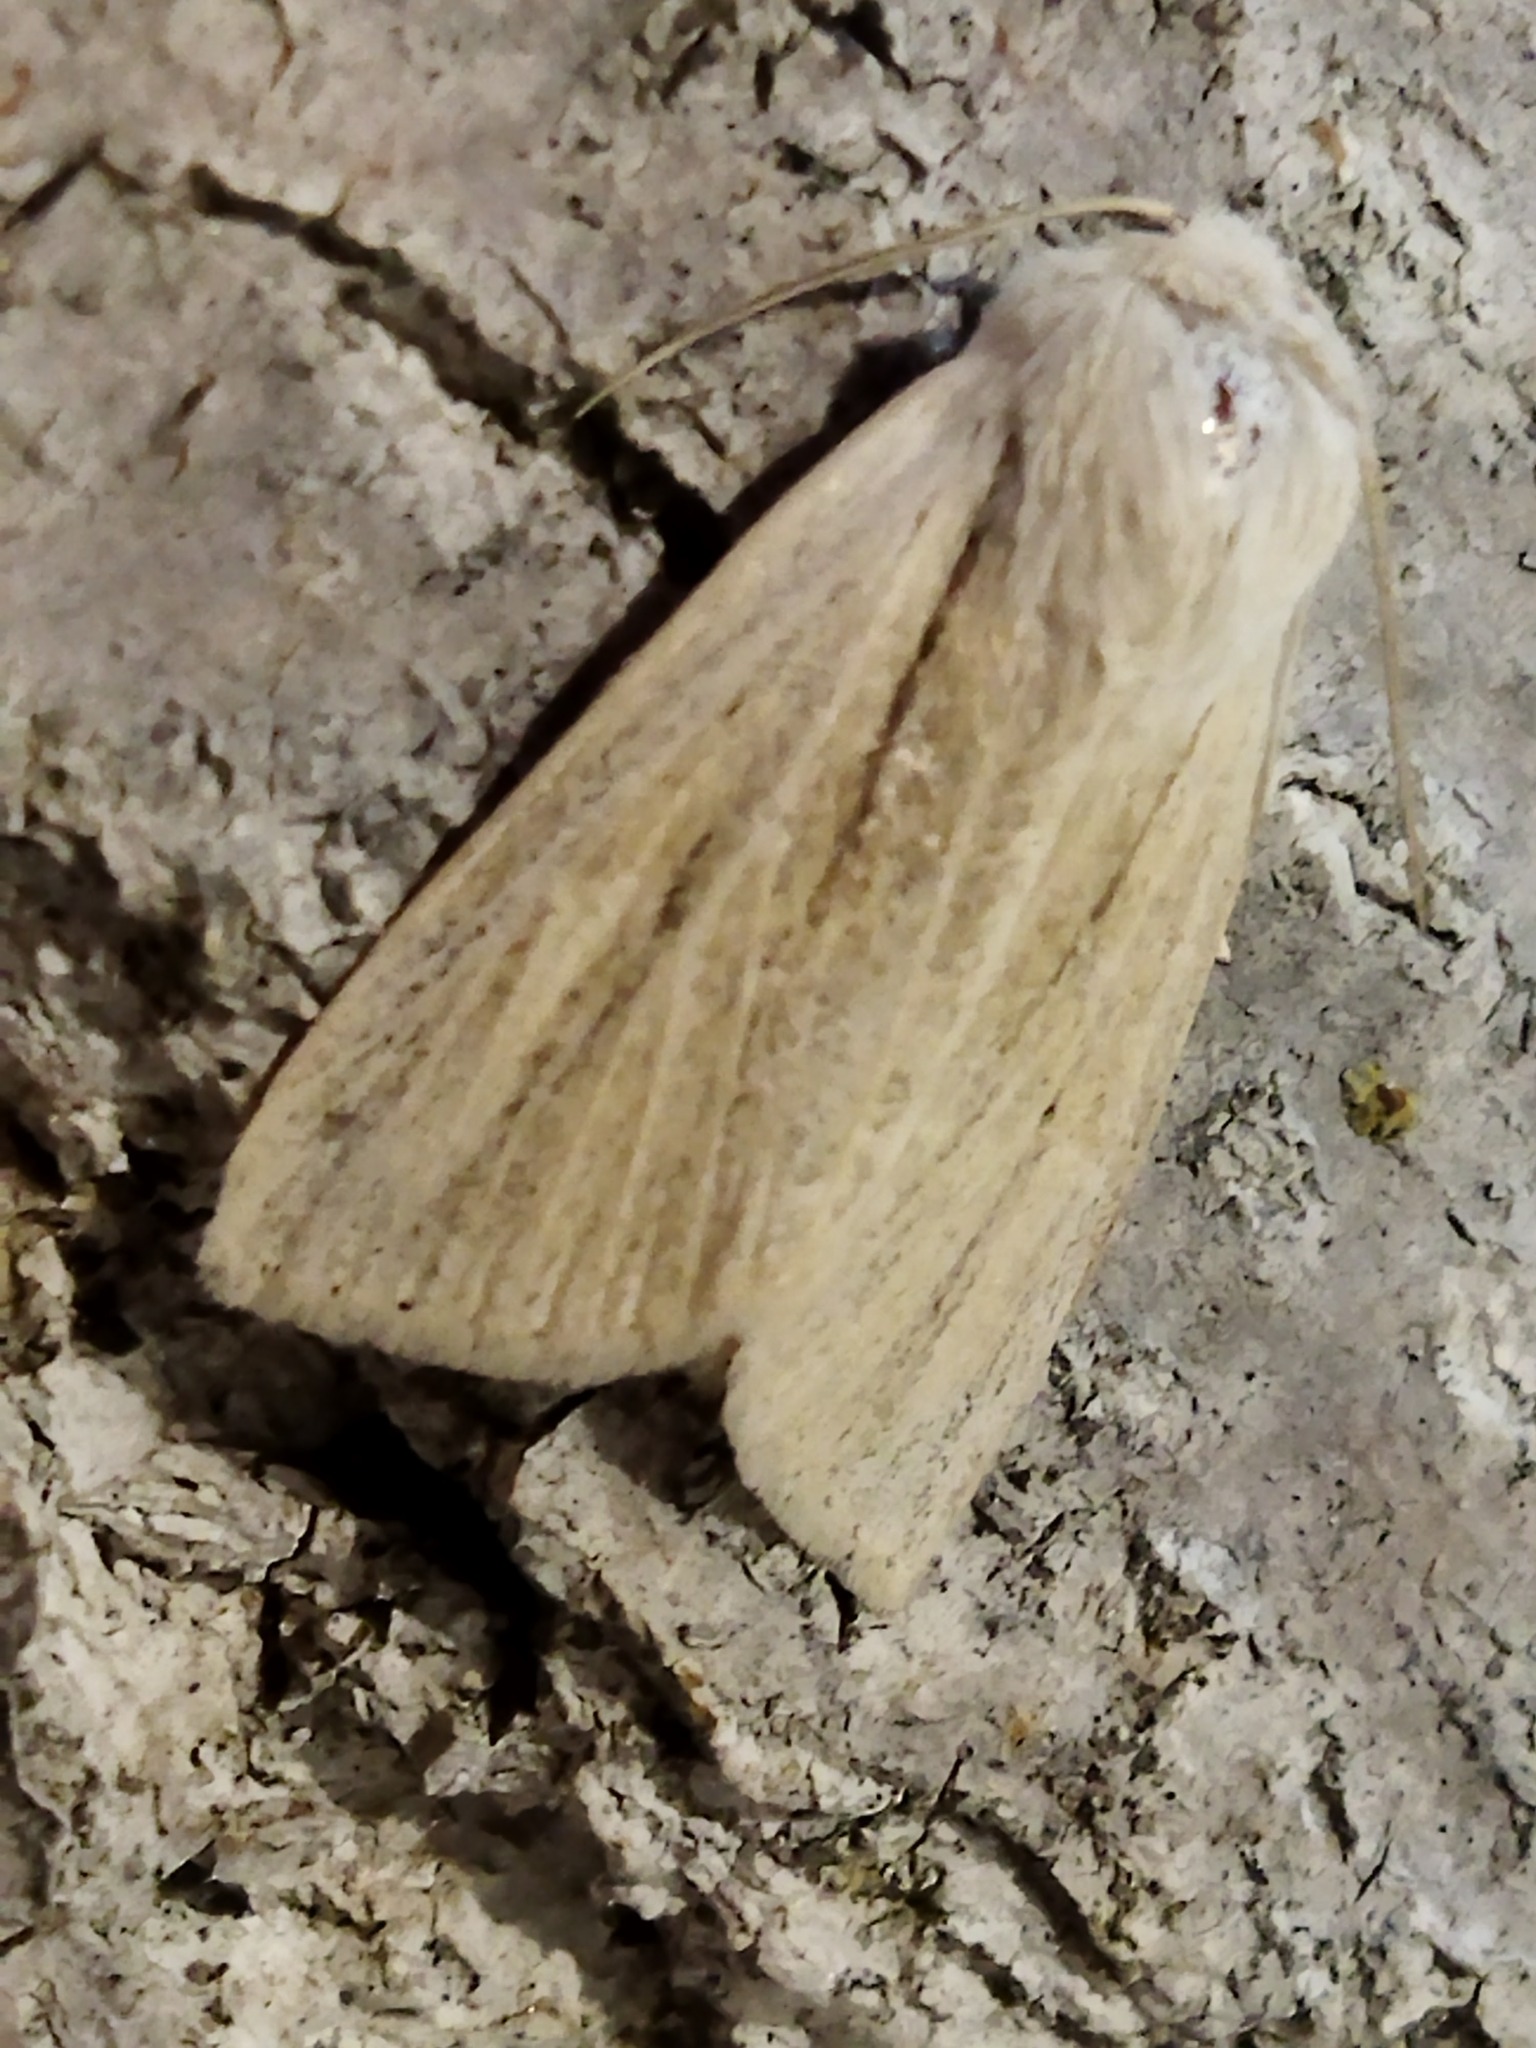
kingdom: Animalia
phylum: Arthropoda
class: Insecta
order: Lepidoptera
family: Noctuidae
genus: Simyra
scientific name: Simyra albovenosa
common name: Reed dagger
